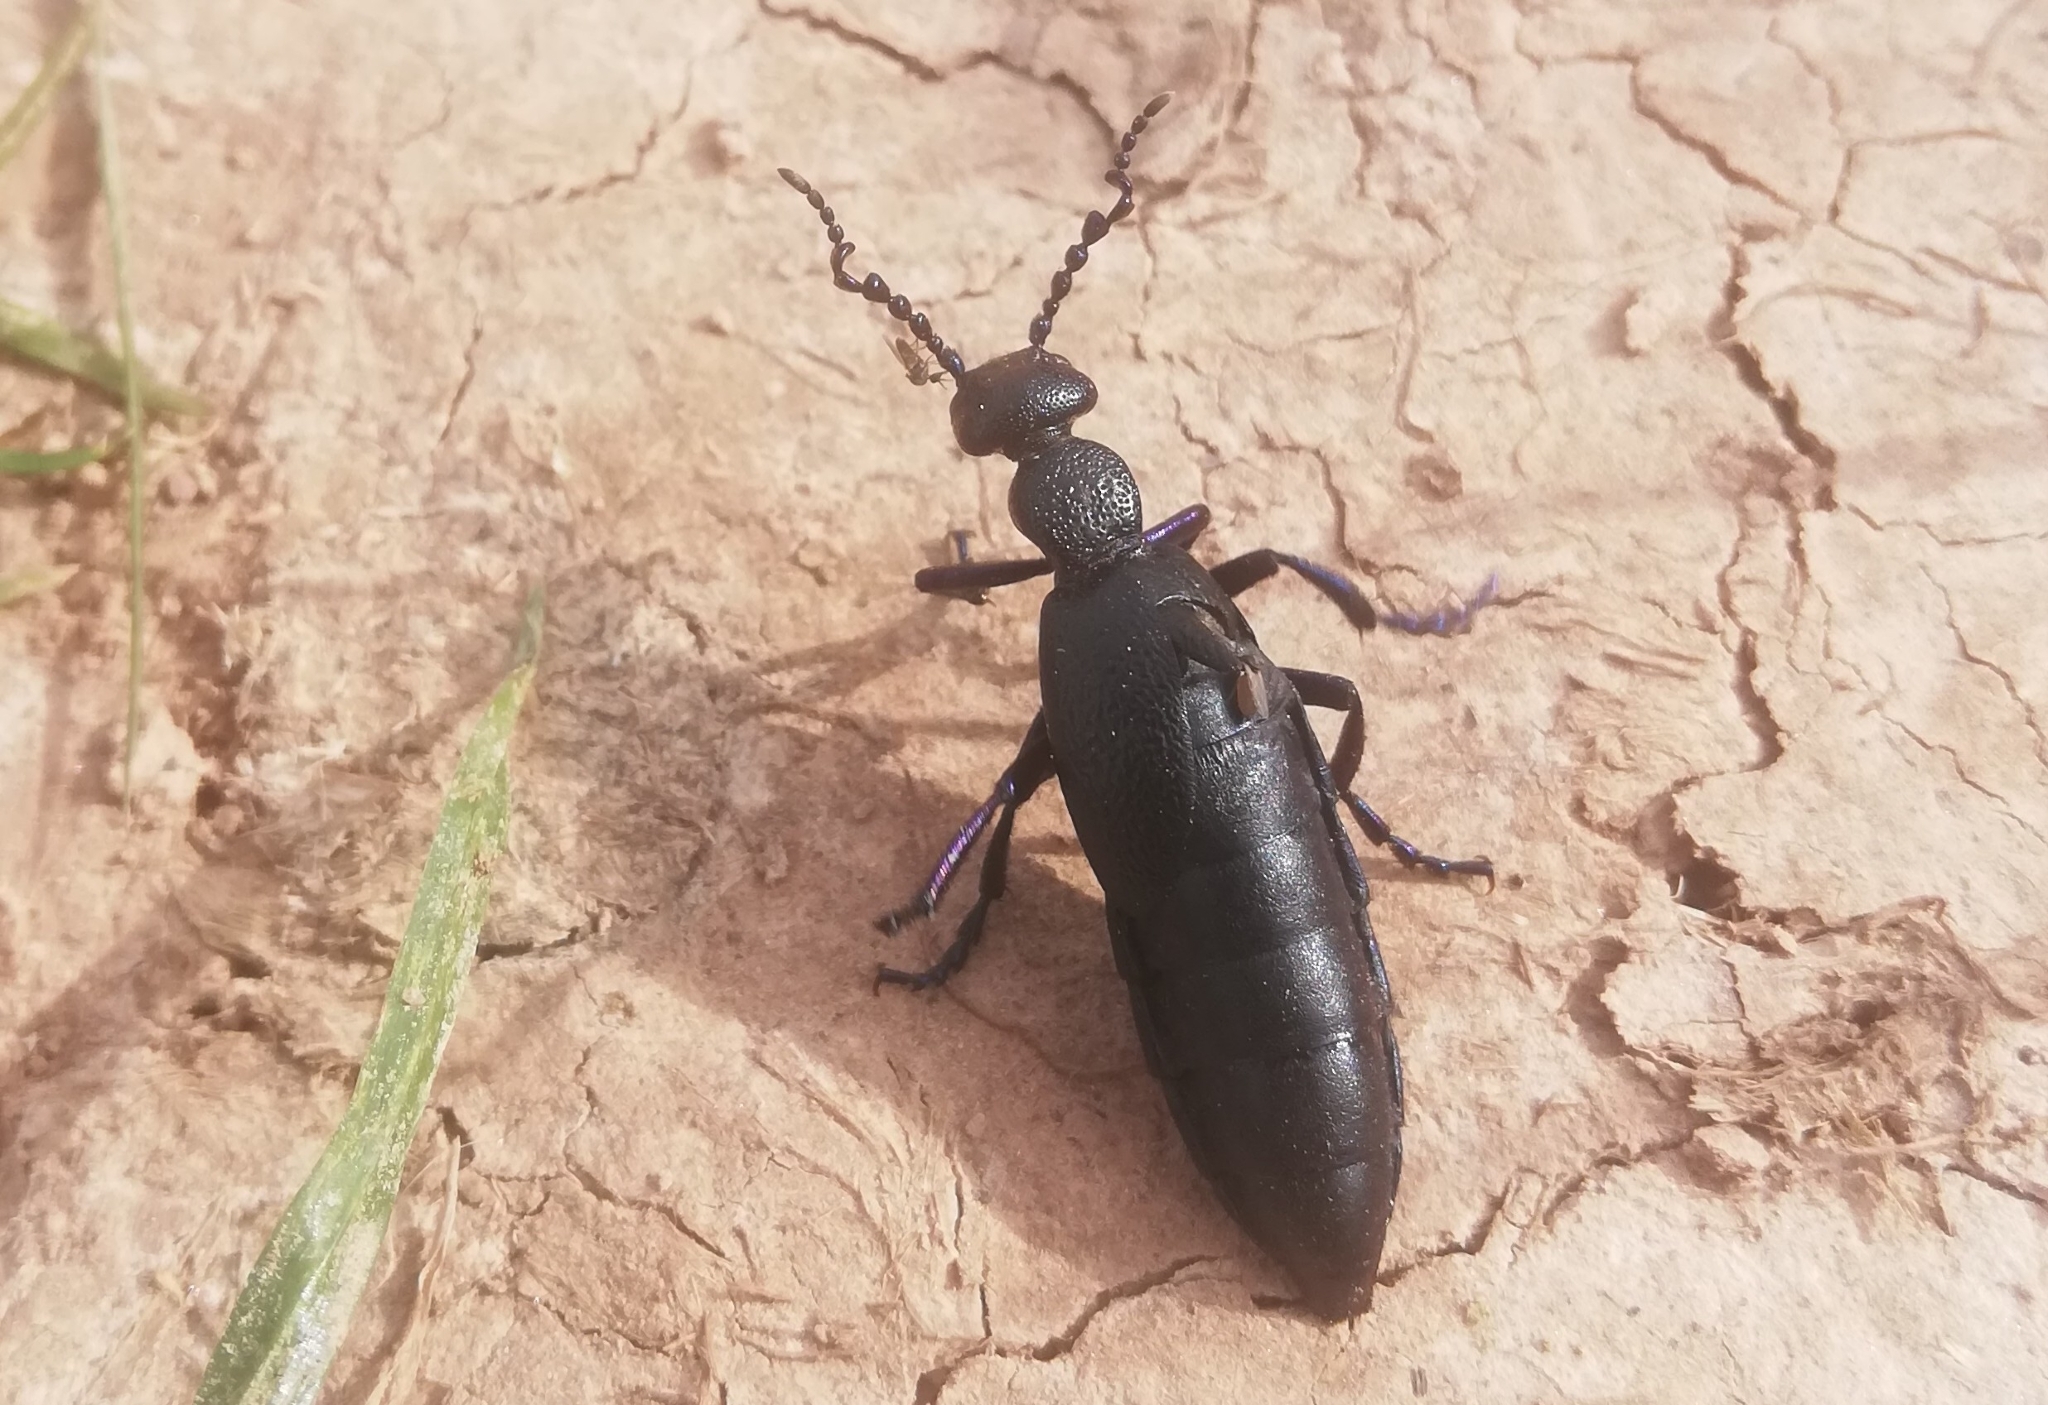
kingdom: Animalia
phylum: Arthropoda
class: Insecta
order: Coleoptera
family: Meloidae
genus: Meloe
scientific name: Meloe proscarabaeus
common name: Black oil-beetle
